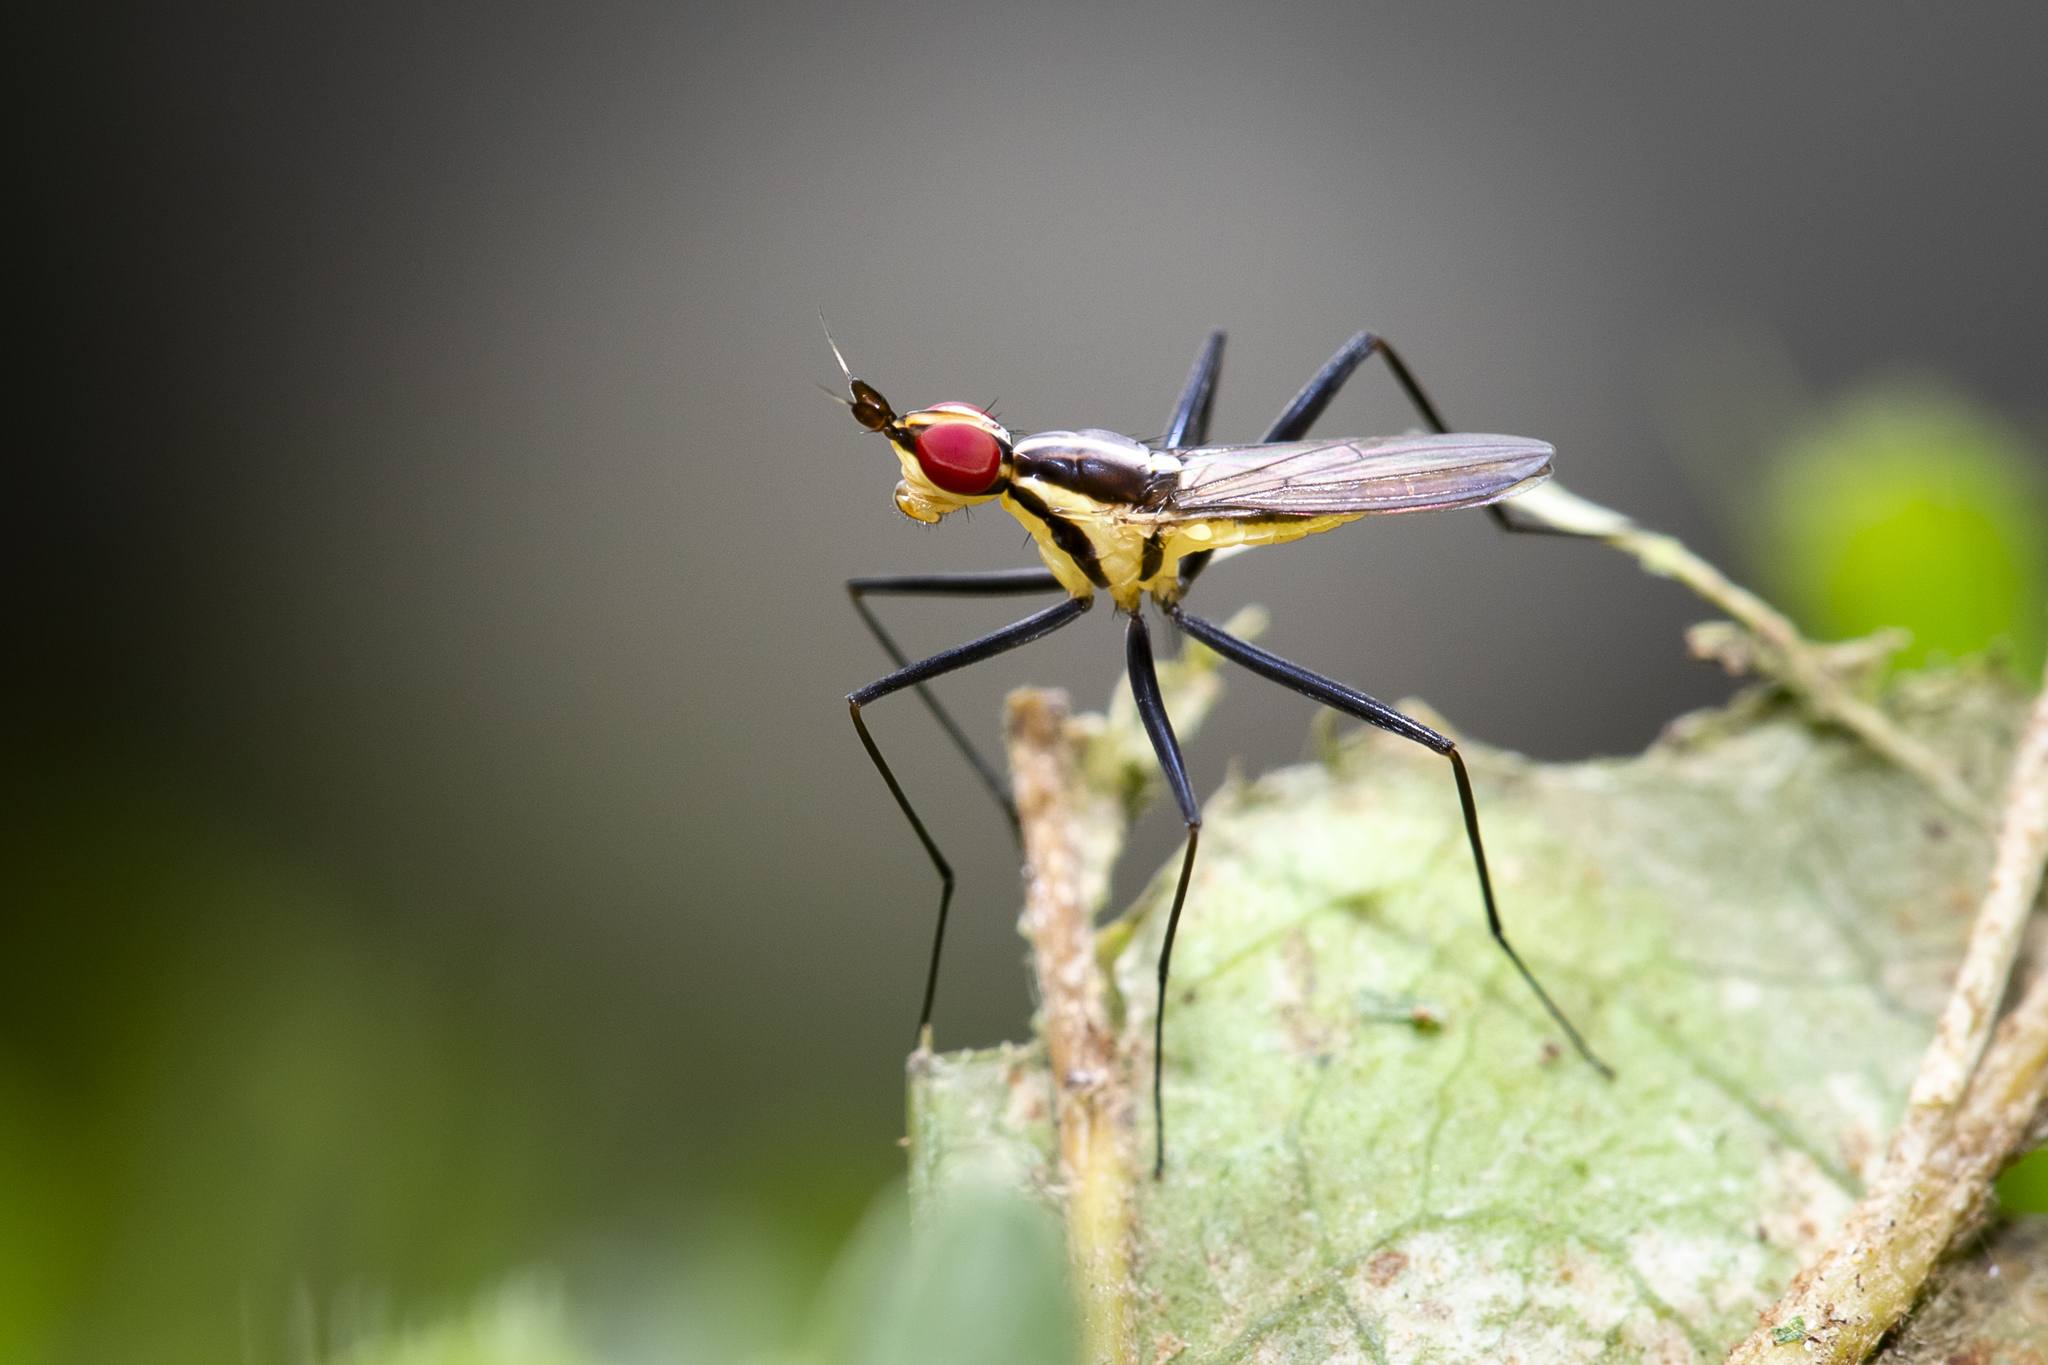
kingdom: Animalia
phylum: Arthropoda
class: Insecta
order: Diptera
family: Neriidae
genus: Telostylinus
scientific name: Telostylinus lineolatus
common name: Banana stalk fly
